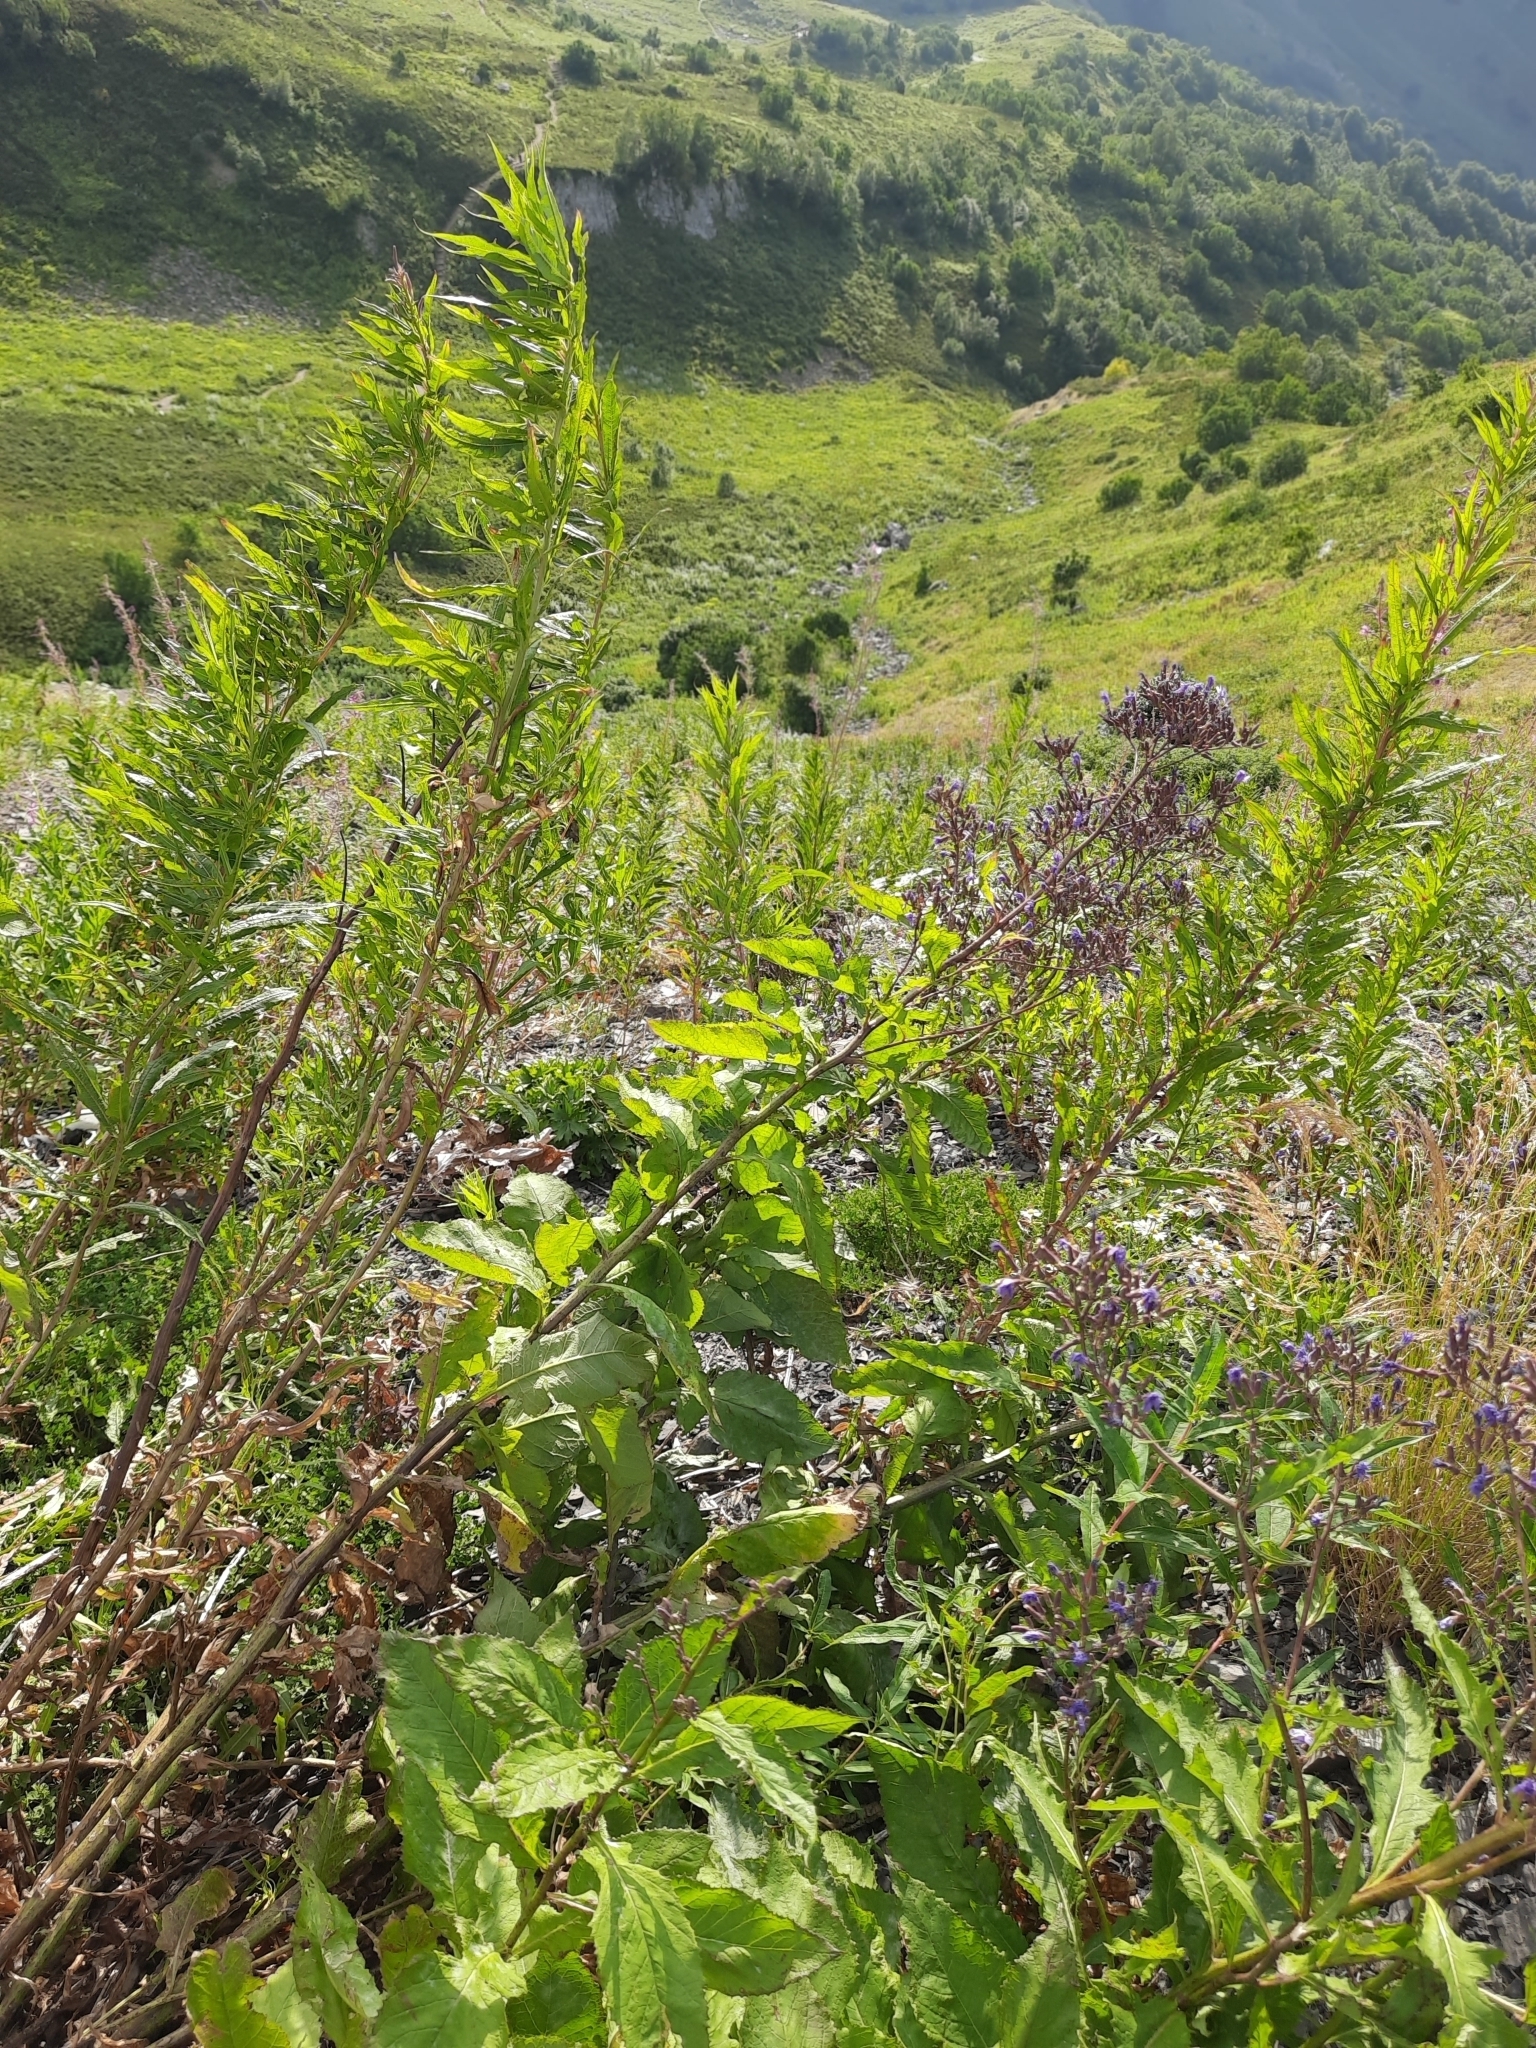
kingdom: Plantae
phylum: Tracheophyta
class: Magnoliopsida
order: Asterales
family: Asteraceae
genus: Cicerbita
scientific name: Cicerbita prenanthoides
